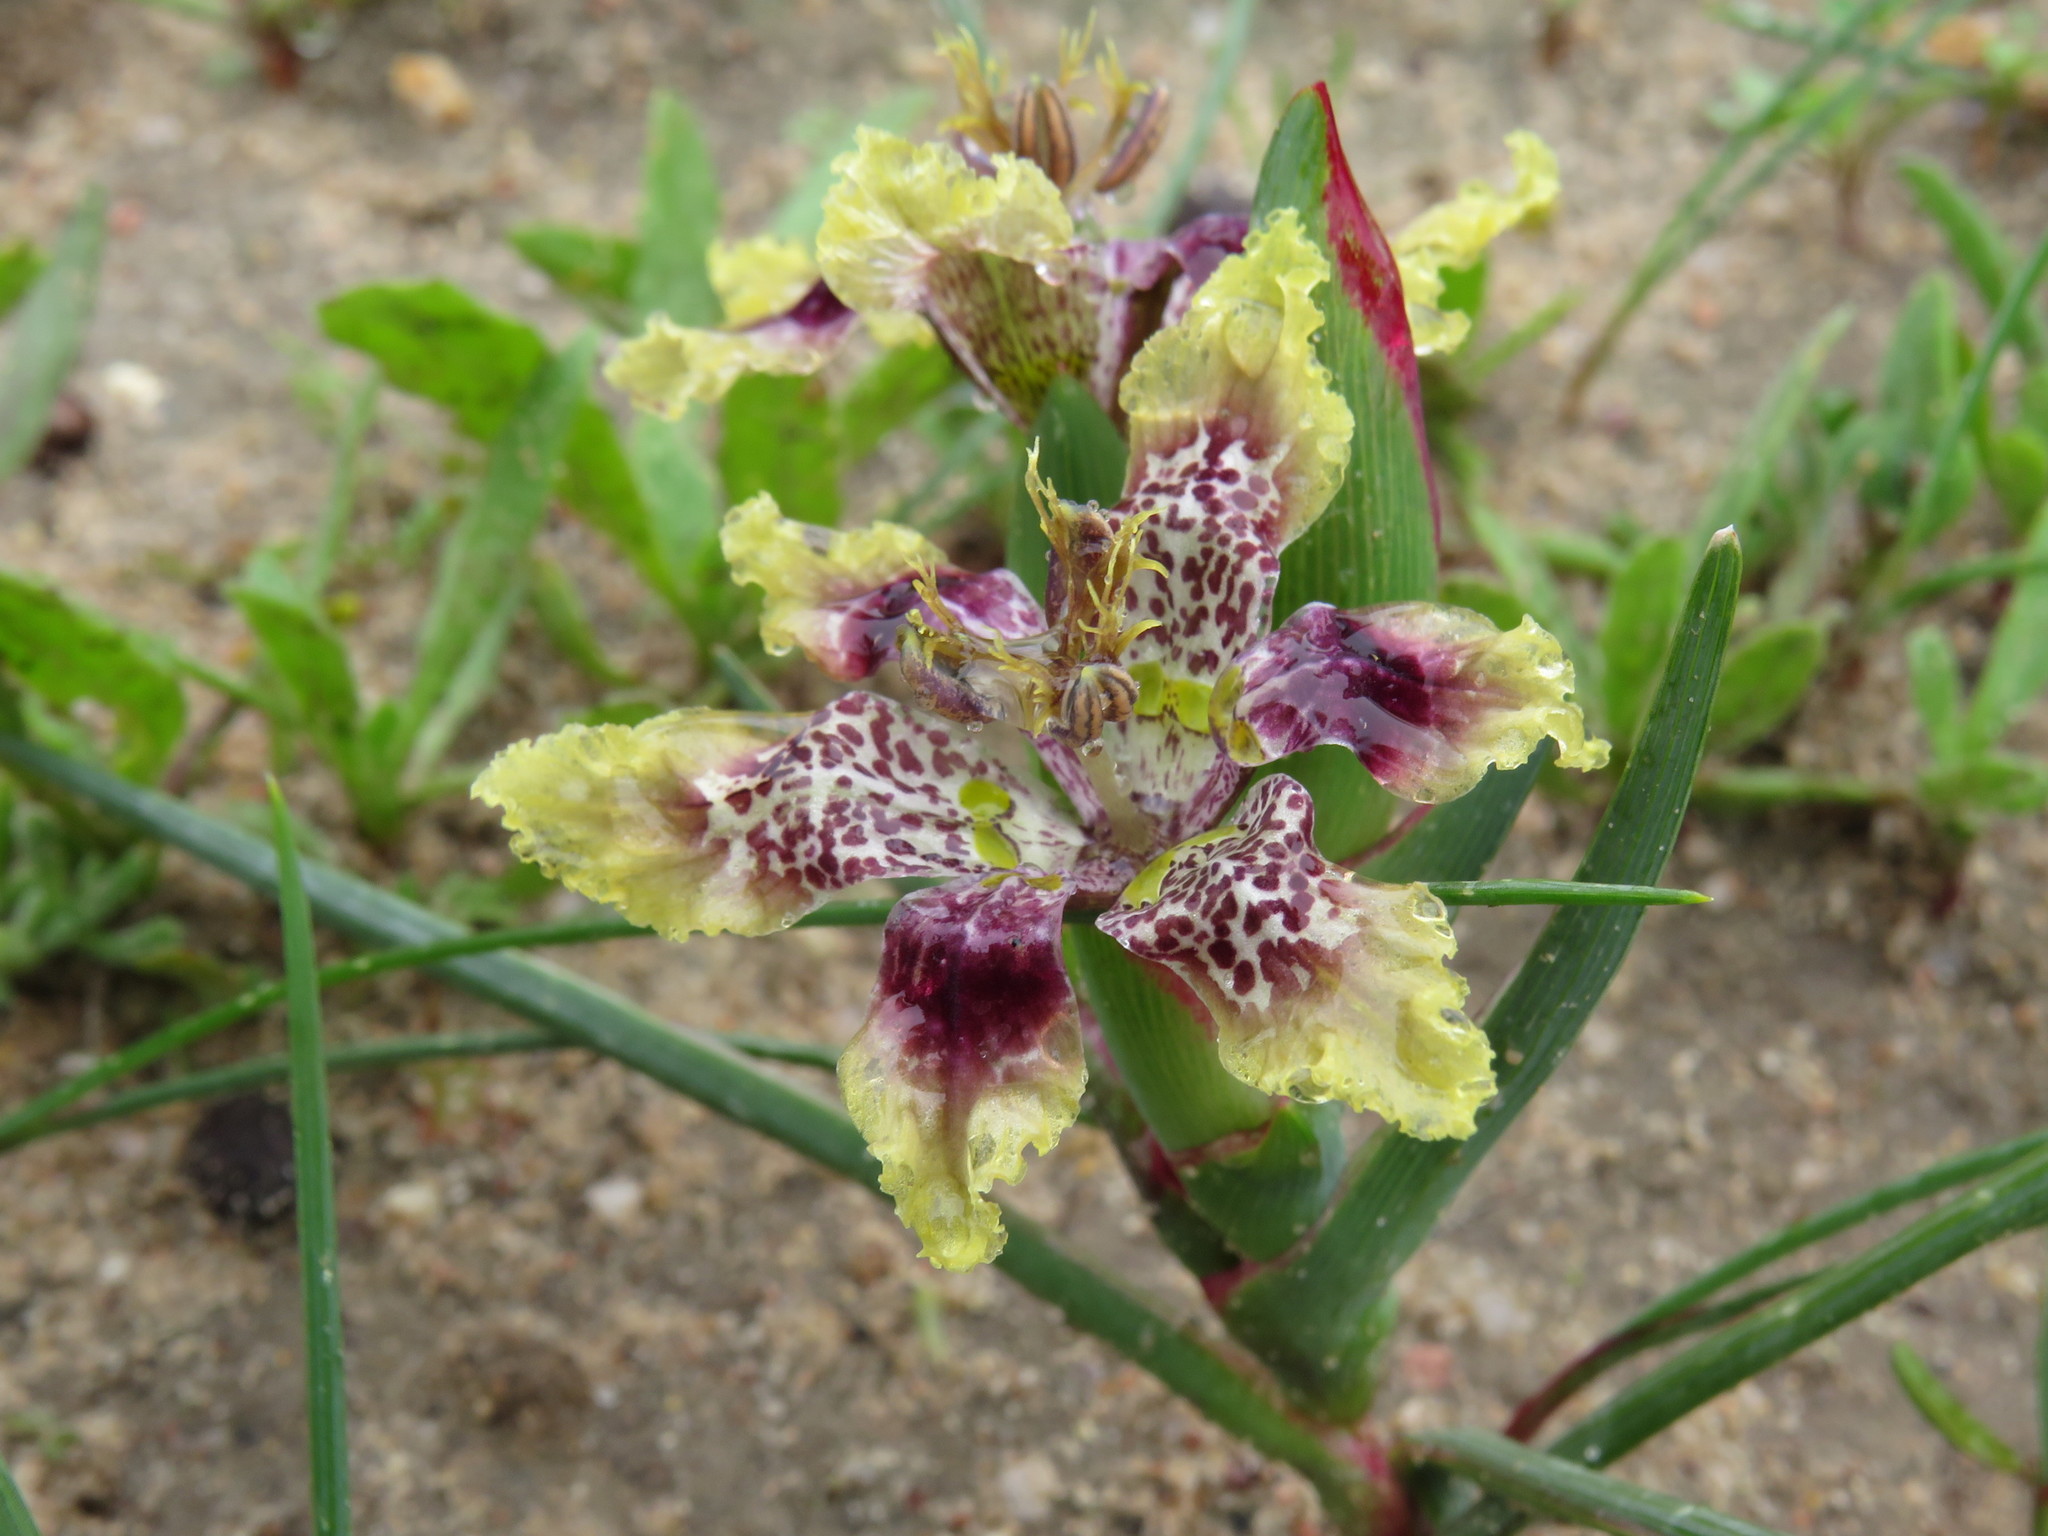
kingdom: Plantae
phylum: Tracheophyta
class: Liliopsida
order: Asparagales
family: Iridaceae
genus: Ferraria
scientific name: Ferraria densepunctulata
